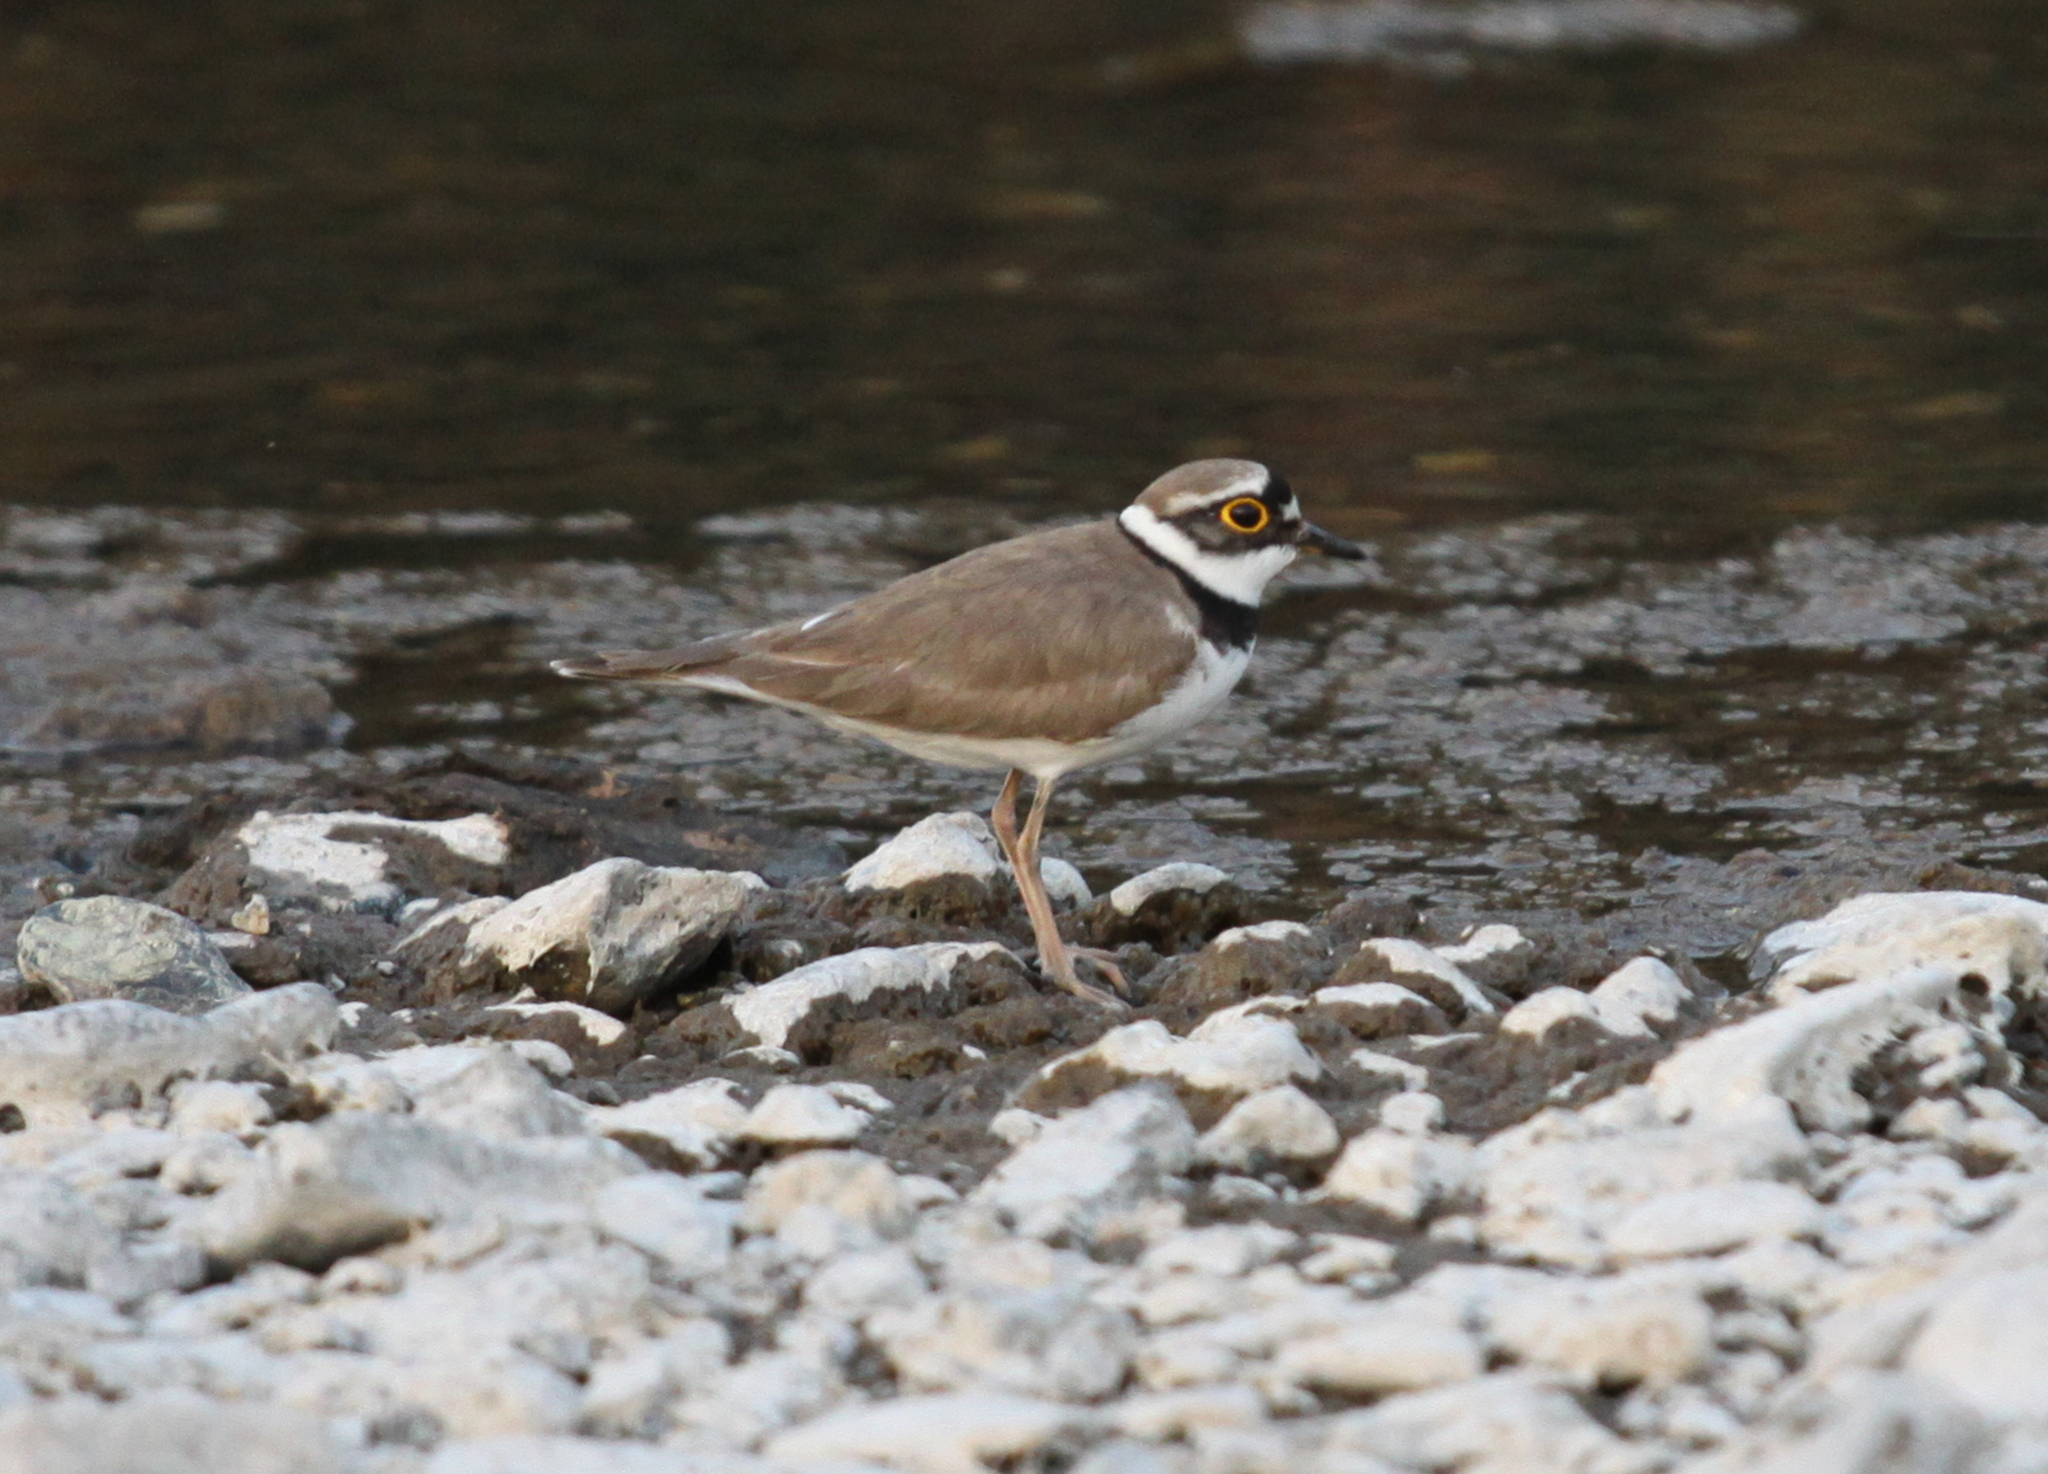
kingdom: Animalia
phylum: Chordata
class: Aves
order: Charadriiformes
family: Charadriidae
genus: Charadrius
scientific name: Charadrius dubius
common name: Little ringed plover
